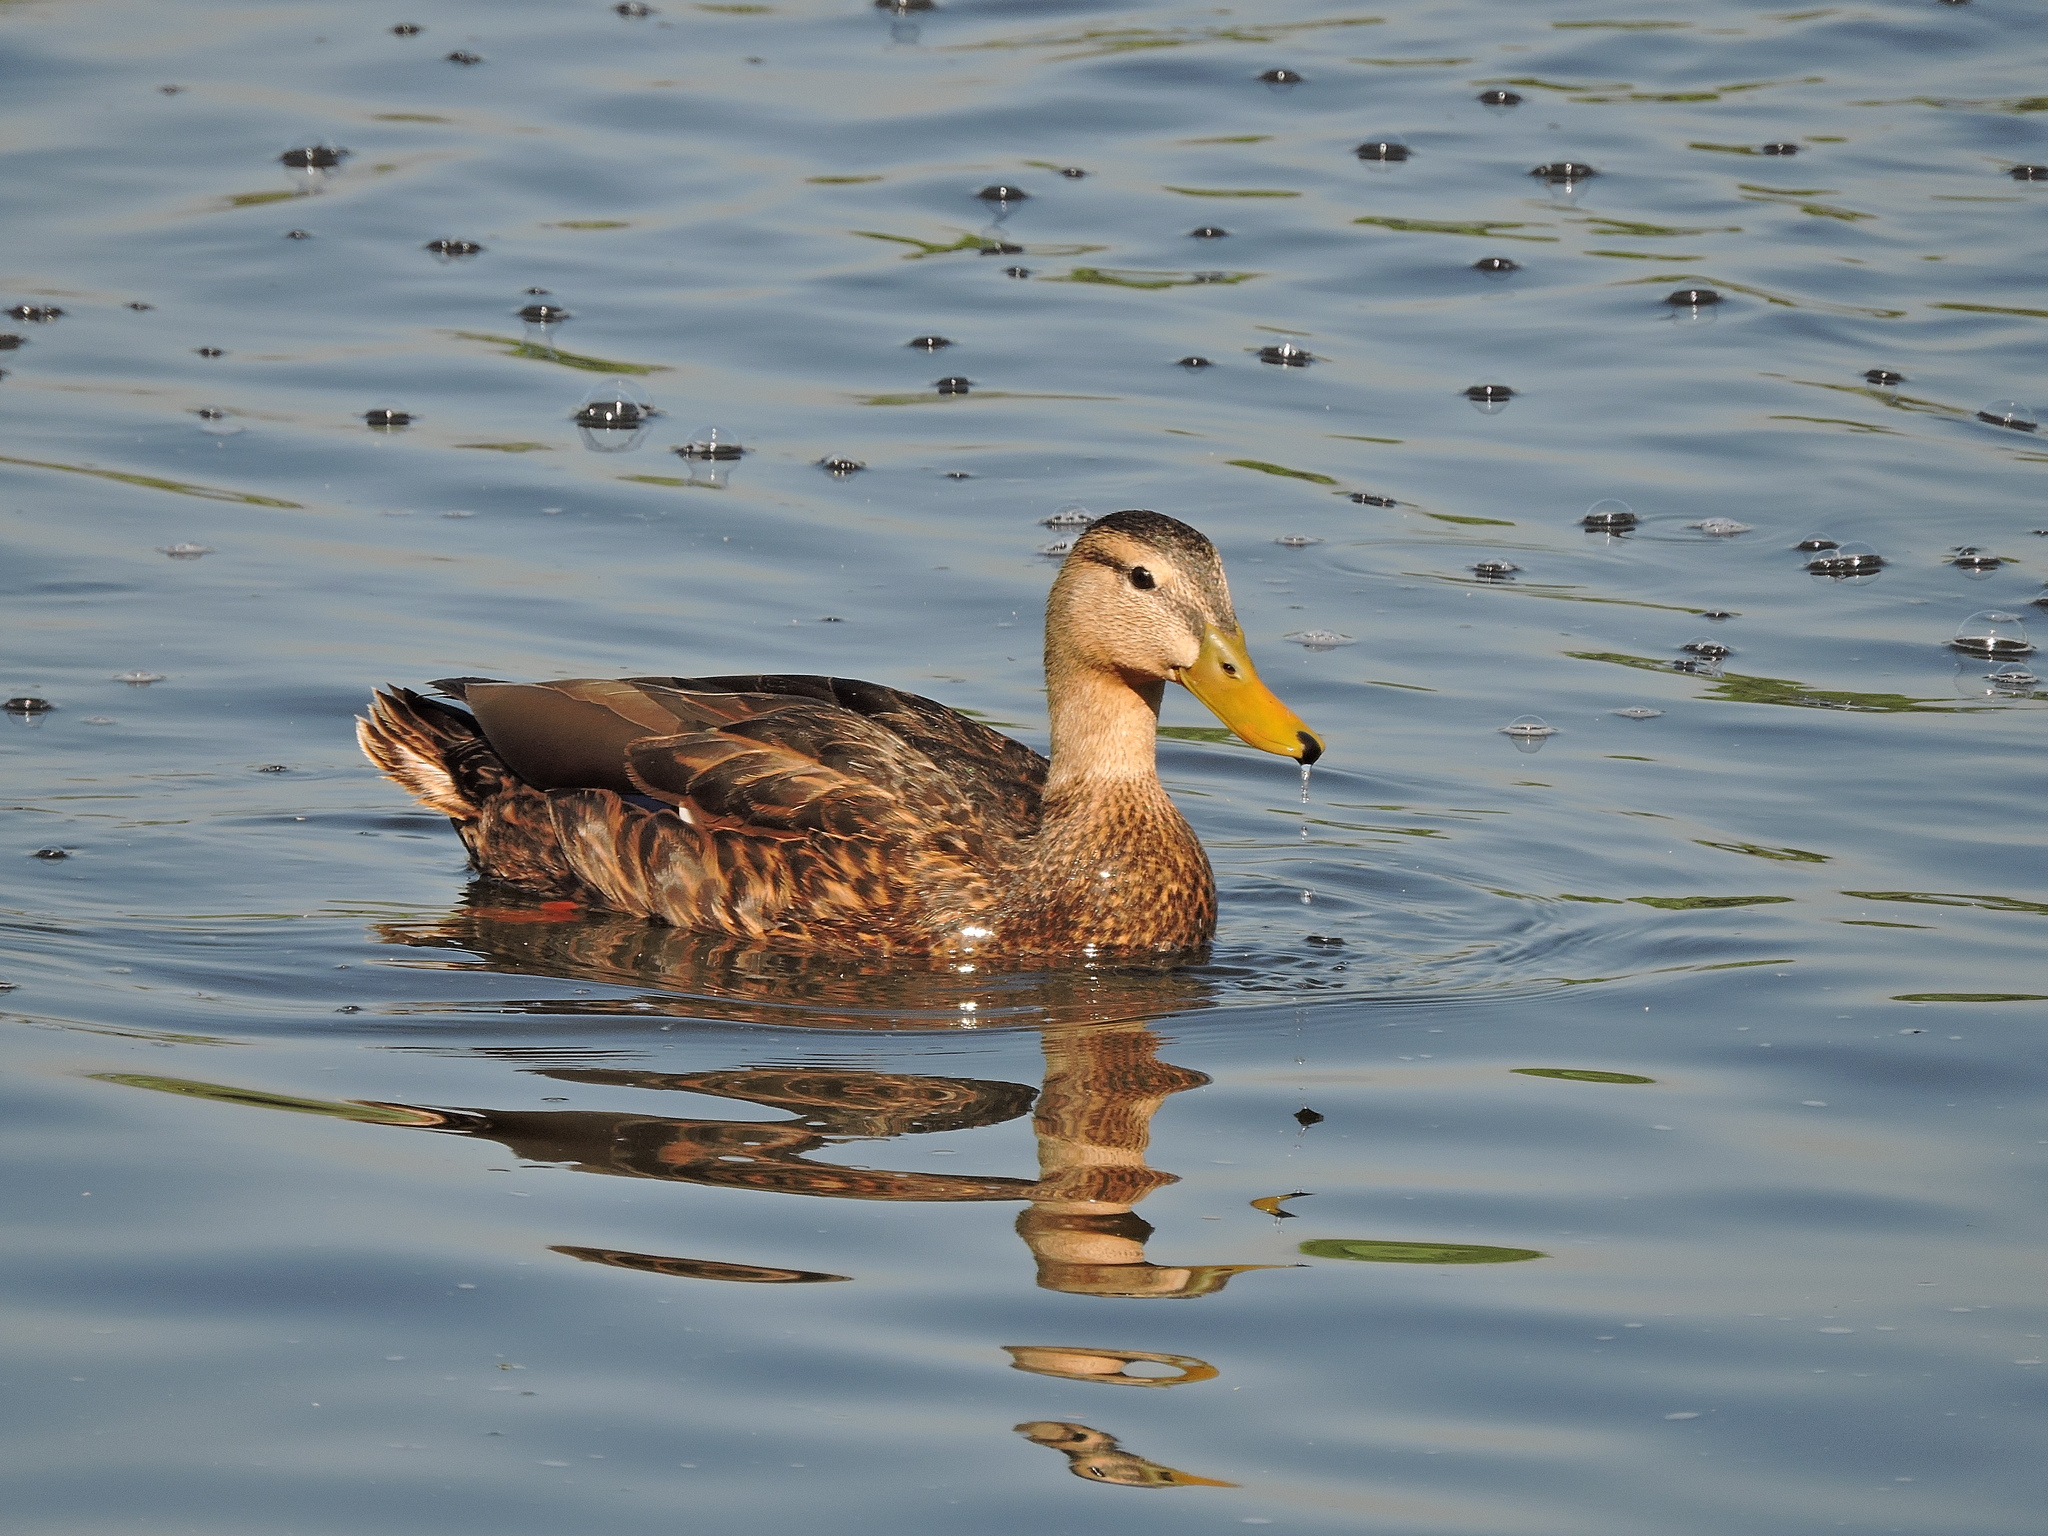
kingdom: Animalia
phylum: Chordata
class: Aves
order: Anseriformes
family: Anatidae
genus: Anas
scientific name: Anas diazi
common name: Mexican duck
